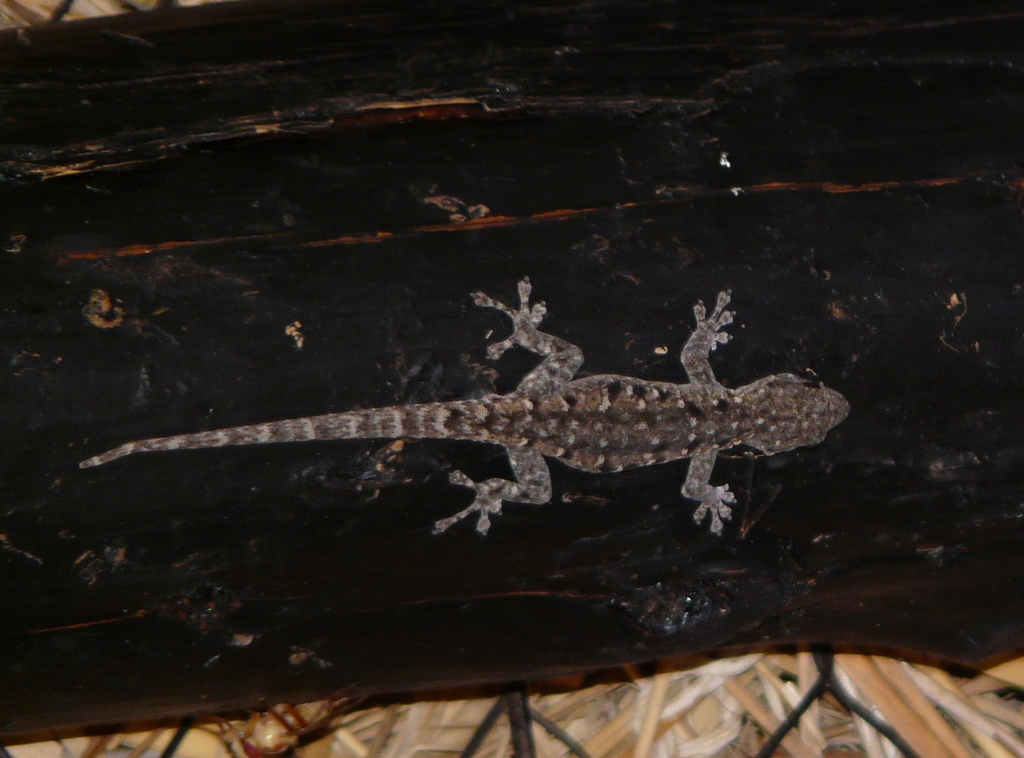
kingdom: Animalia
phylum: Chordata
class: Squamata
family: Gekkonidae
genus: Lygodactylus
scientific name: Lygodactylus stevensoni
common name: Stevenson's dwarf gecko
